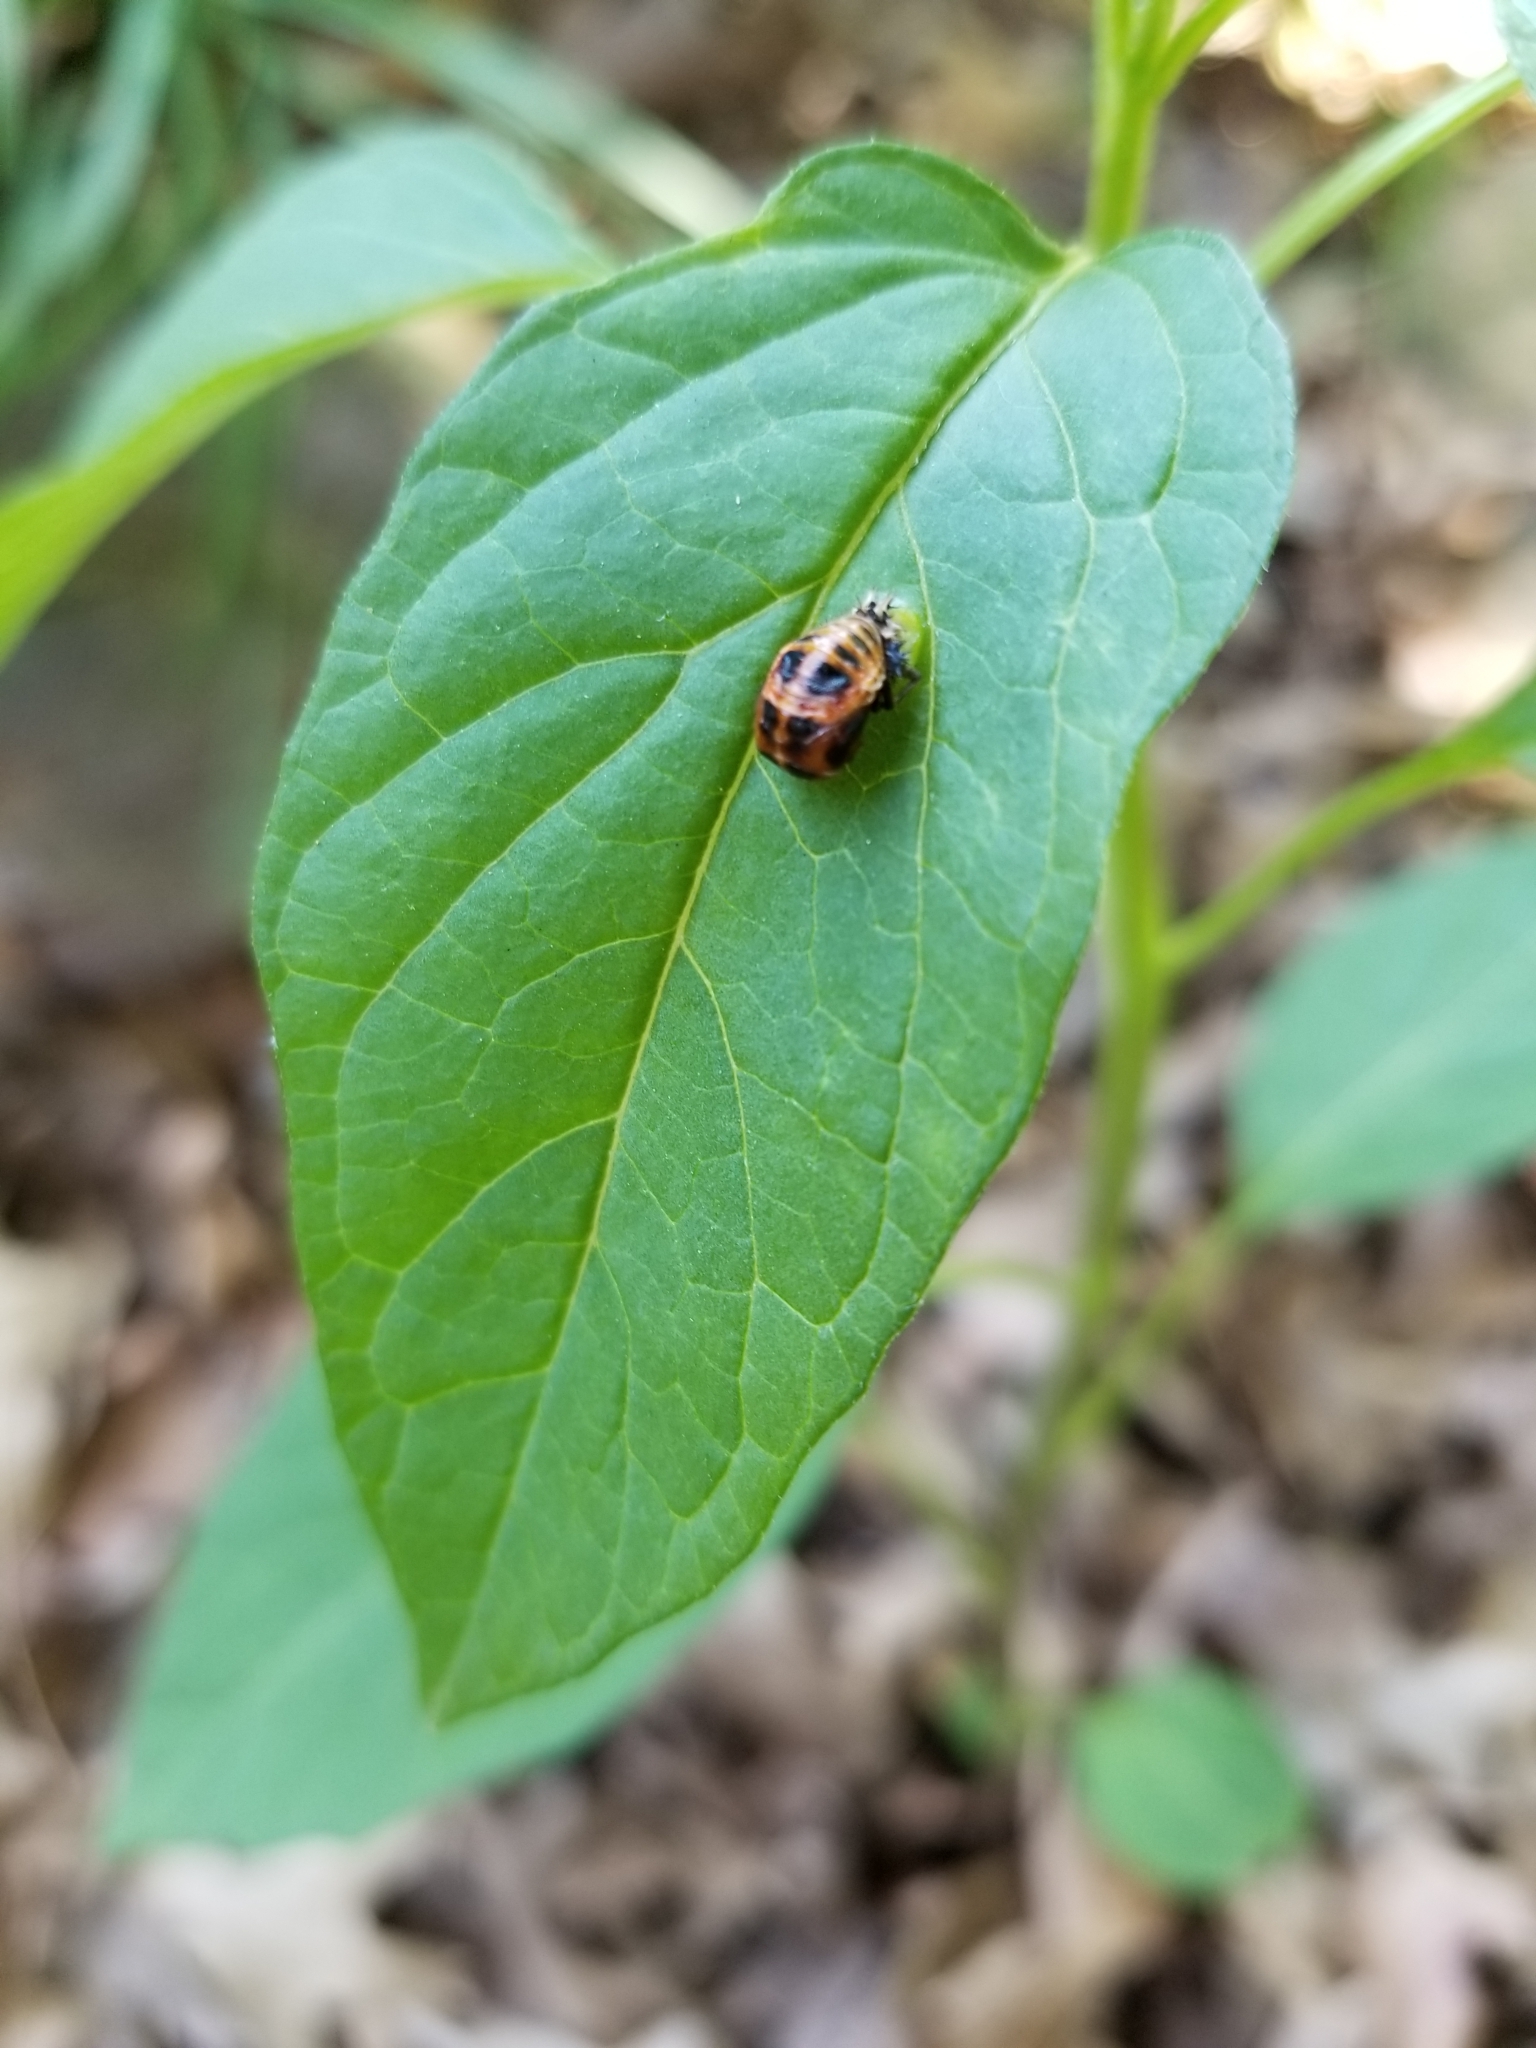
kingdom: Animalia
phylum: Arthropoda
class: Insecta
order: Coleoptera
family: Coccinellidae
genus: Coccinella
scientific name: Coccinella septempunctata
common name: Sevenspotted lady beetle
